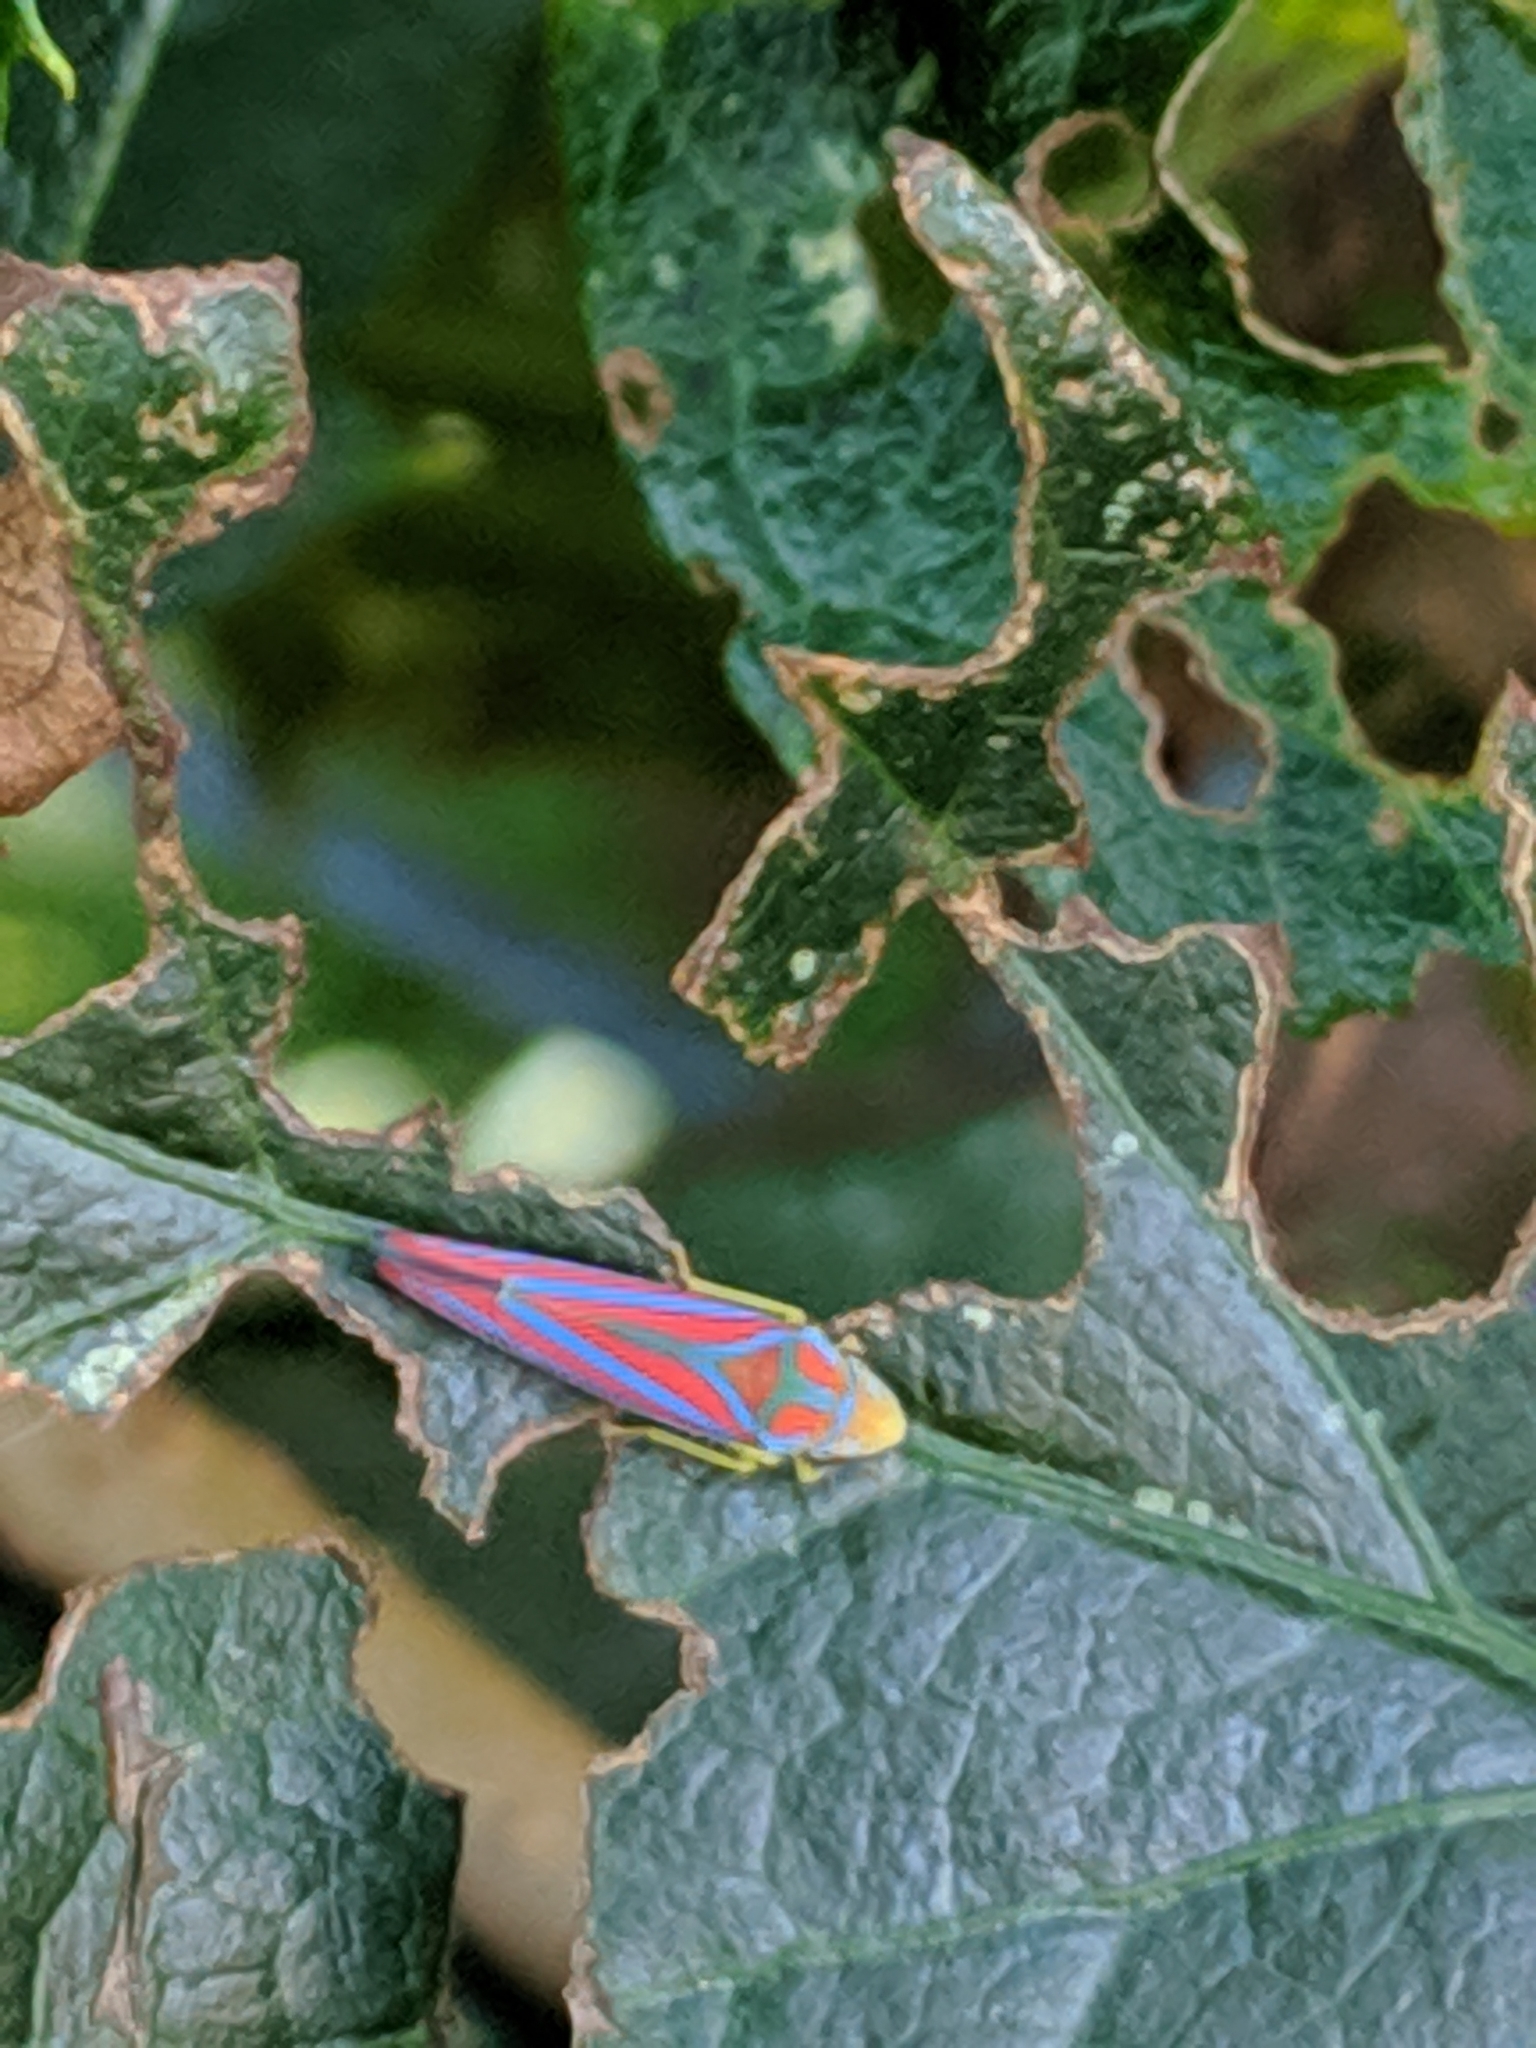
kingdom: Animalia
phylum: Arthropoda
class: Insecta
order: Hemiptera
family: Cicadellidae
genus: Graphocephala
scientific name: Graphocephala coccinea
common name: Candy-striped leafhopper
